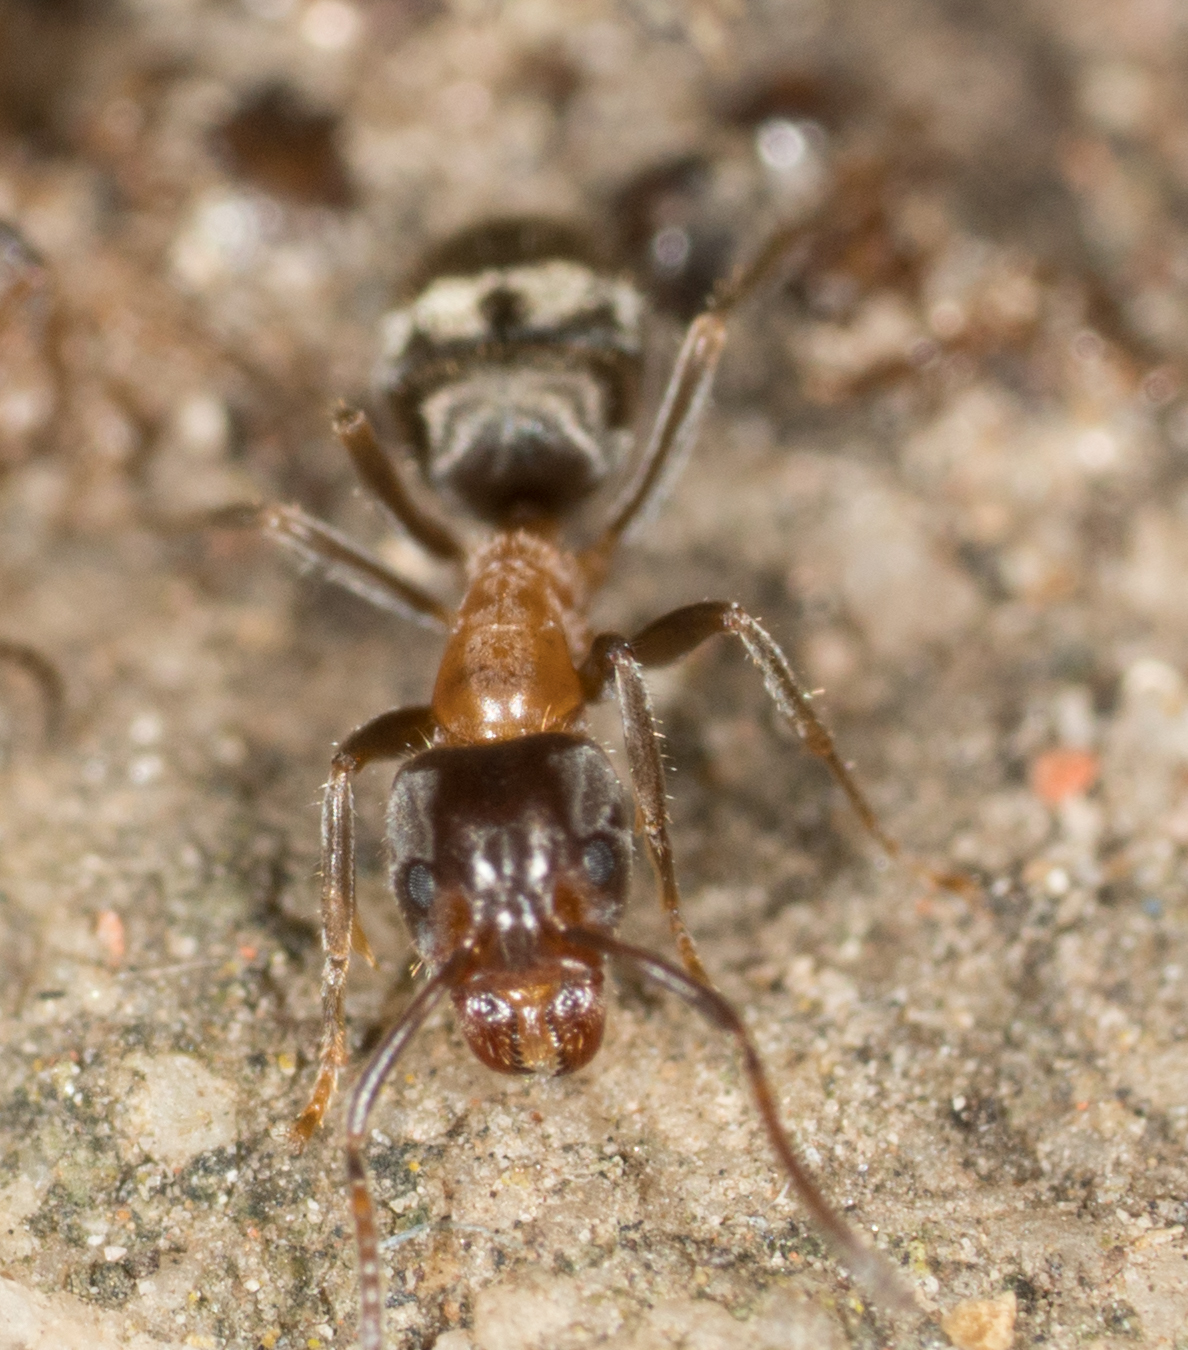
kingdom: Animalia
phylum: Arthropoda
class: Insecta
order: Hymenoptera
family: Formicidae
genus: Liometopum
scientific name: Liometopum occidentale
